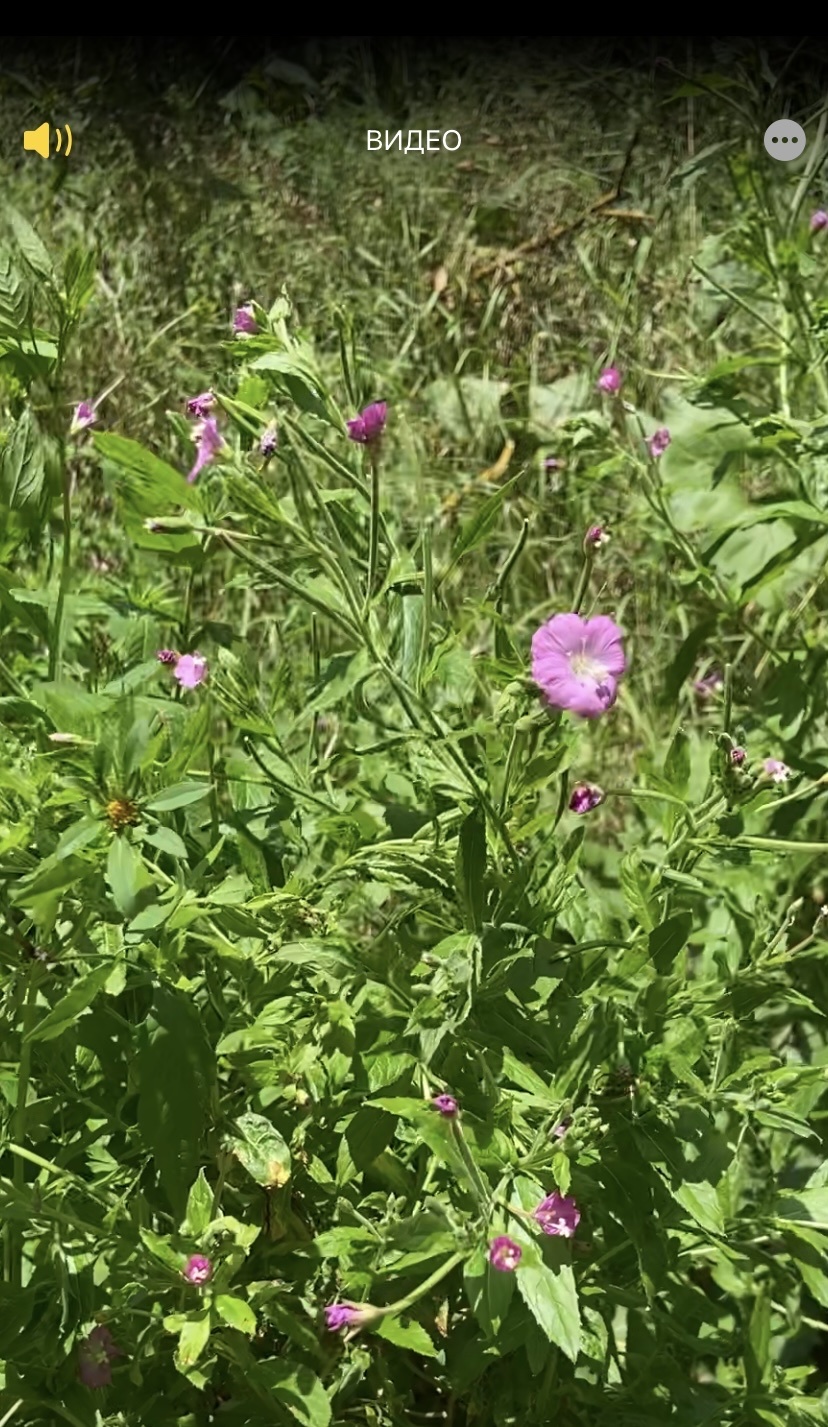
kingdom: Plantae
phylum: Tracheophyta
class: Magnoliopsida
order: Myrtales
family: Onagraceae
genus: Epilobium
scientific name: Epilobium hirsutum
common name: Great willowherb
